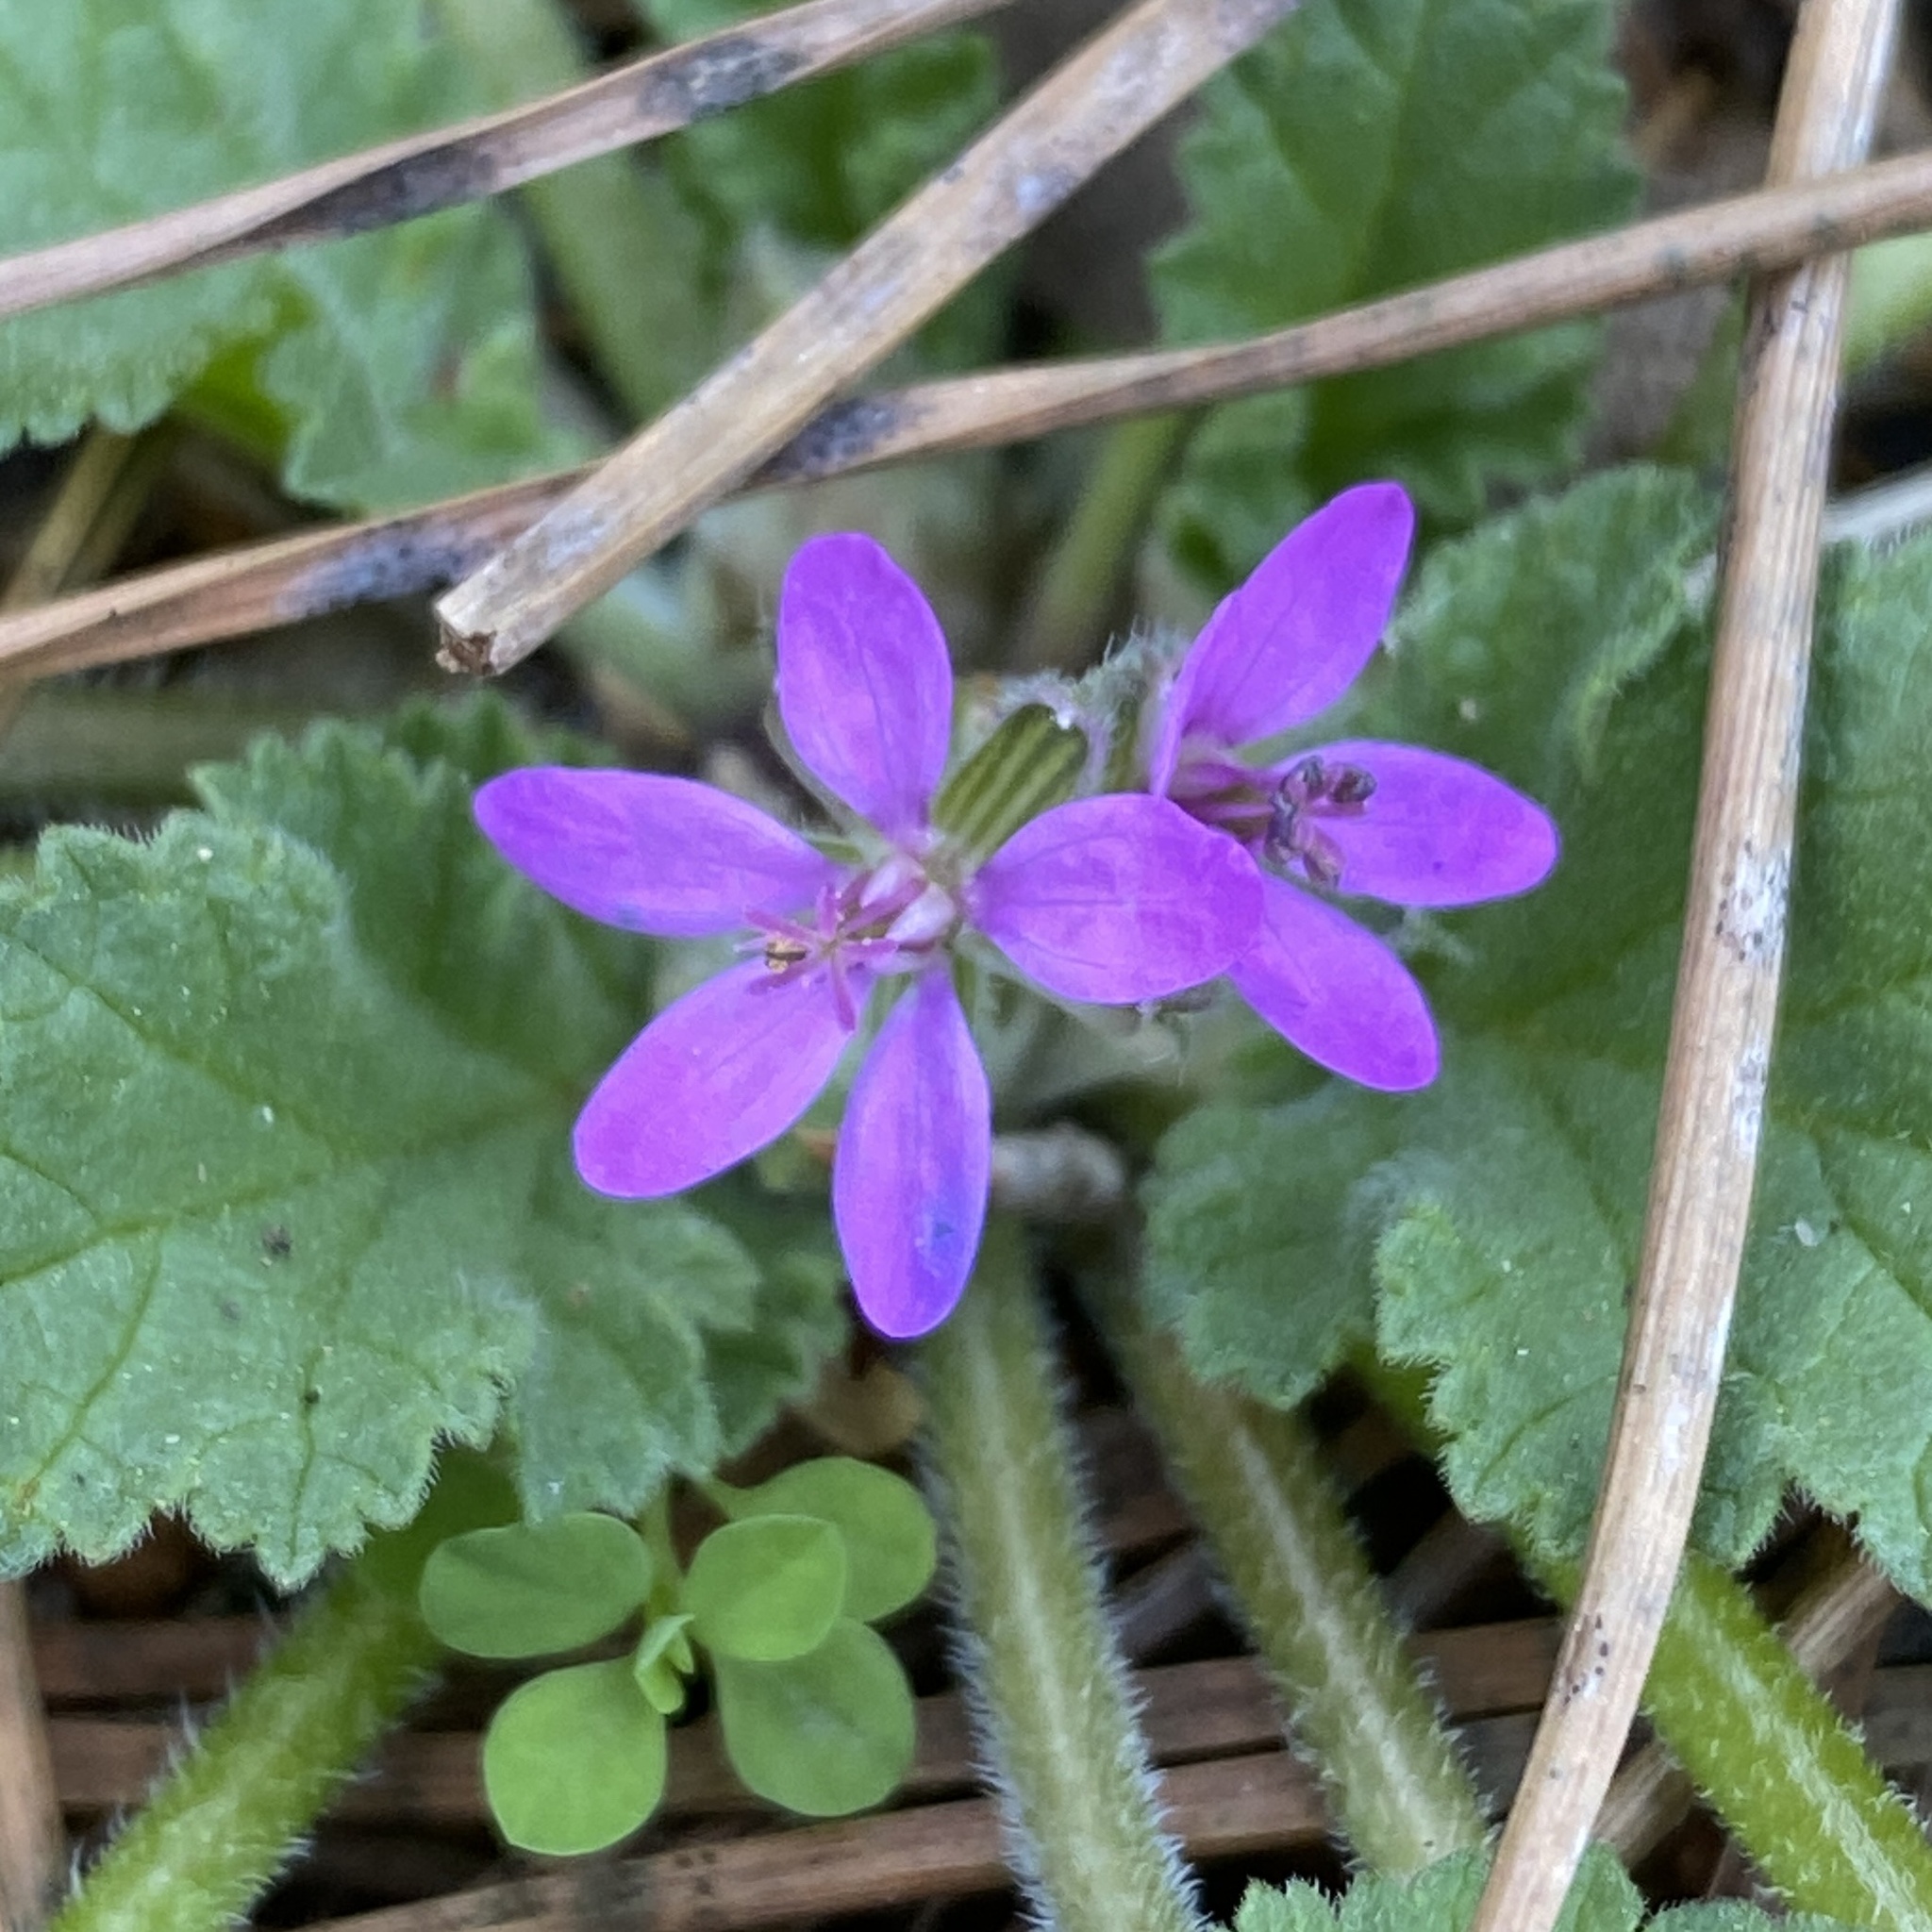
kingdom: Plantae
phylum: Tracheophyta
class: Magnoliopsida
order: Geraniales
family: Geraniaceae
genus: Erodium
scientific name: Erodium malacoides
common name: Soft stork's-bill
